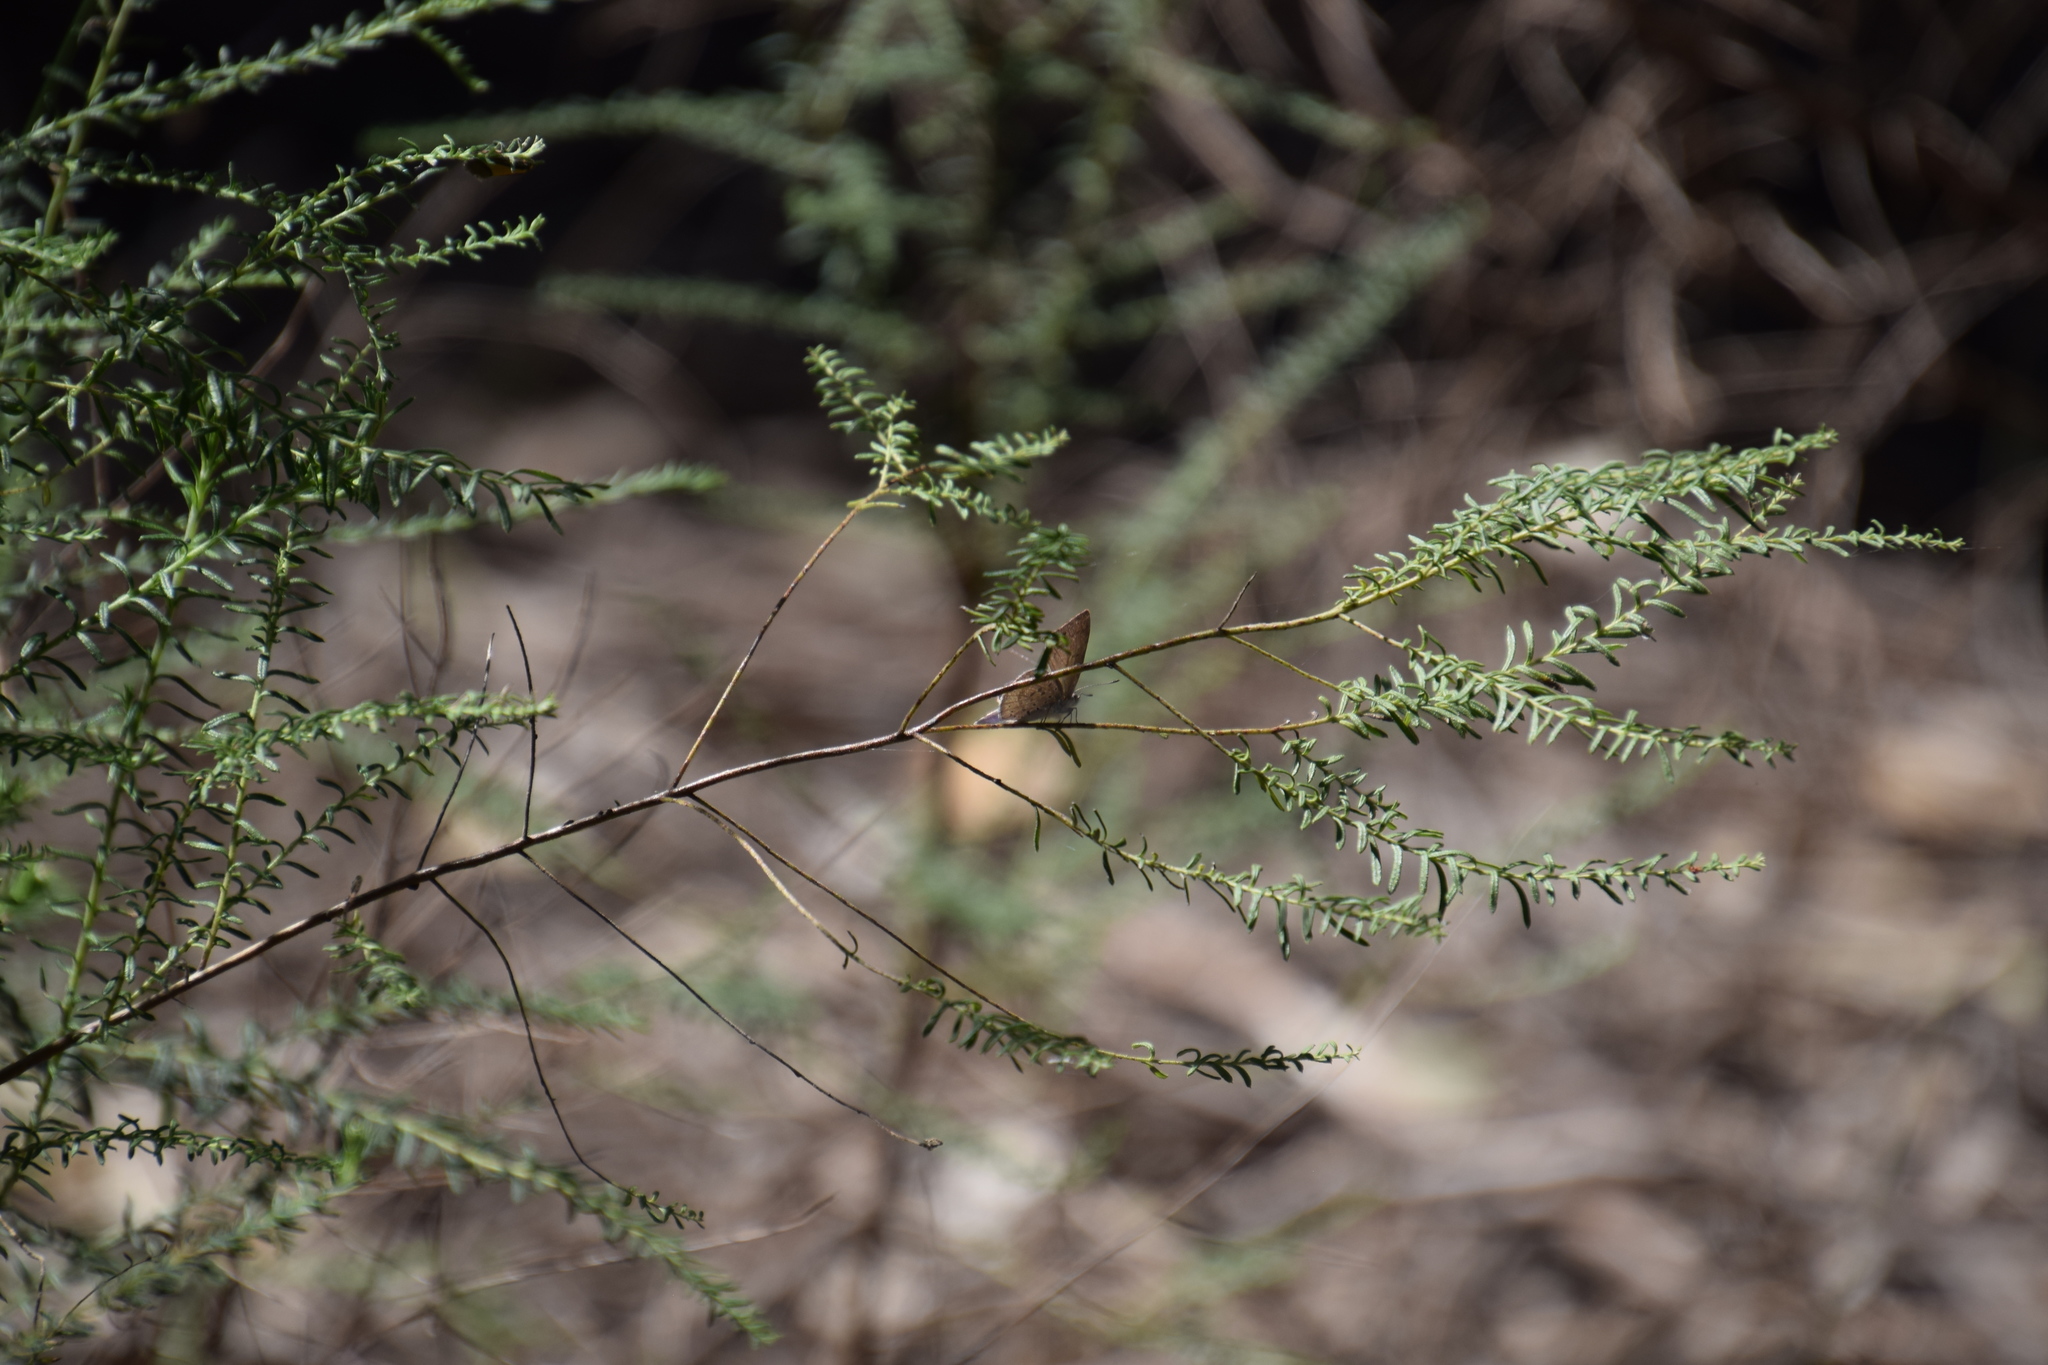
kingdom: Animalia
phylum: Arthropoda
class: Insecta
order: Lepidoptera
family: Lycaenidae
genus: Candalides
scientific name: Candalides
